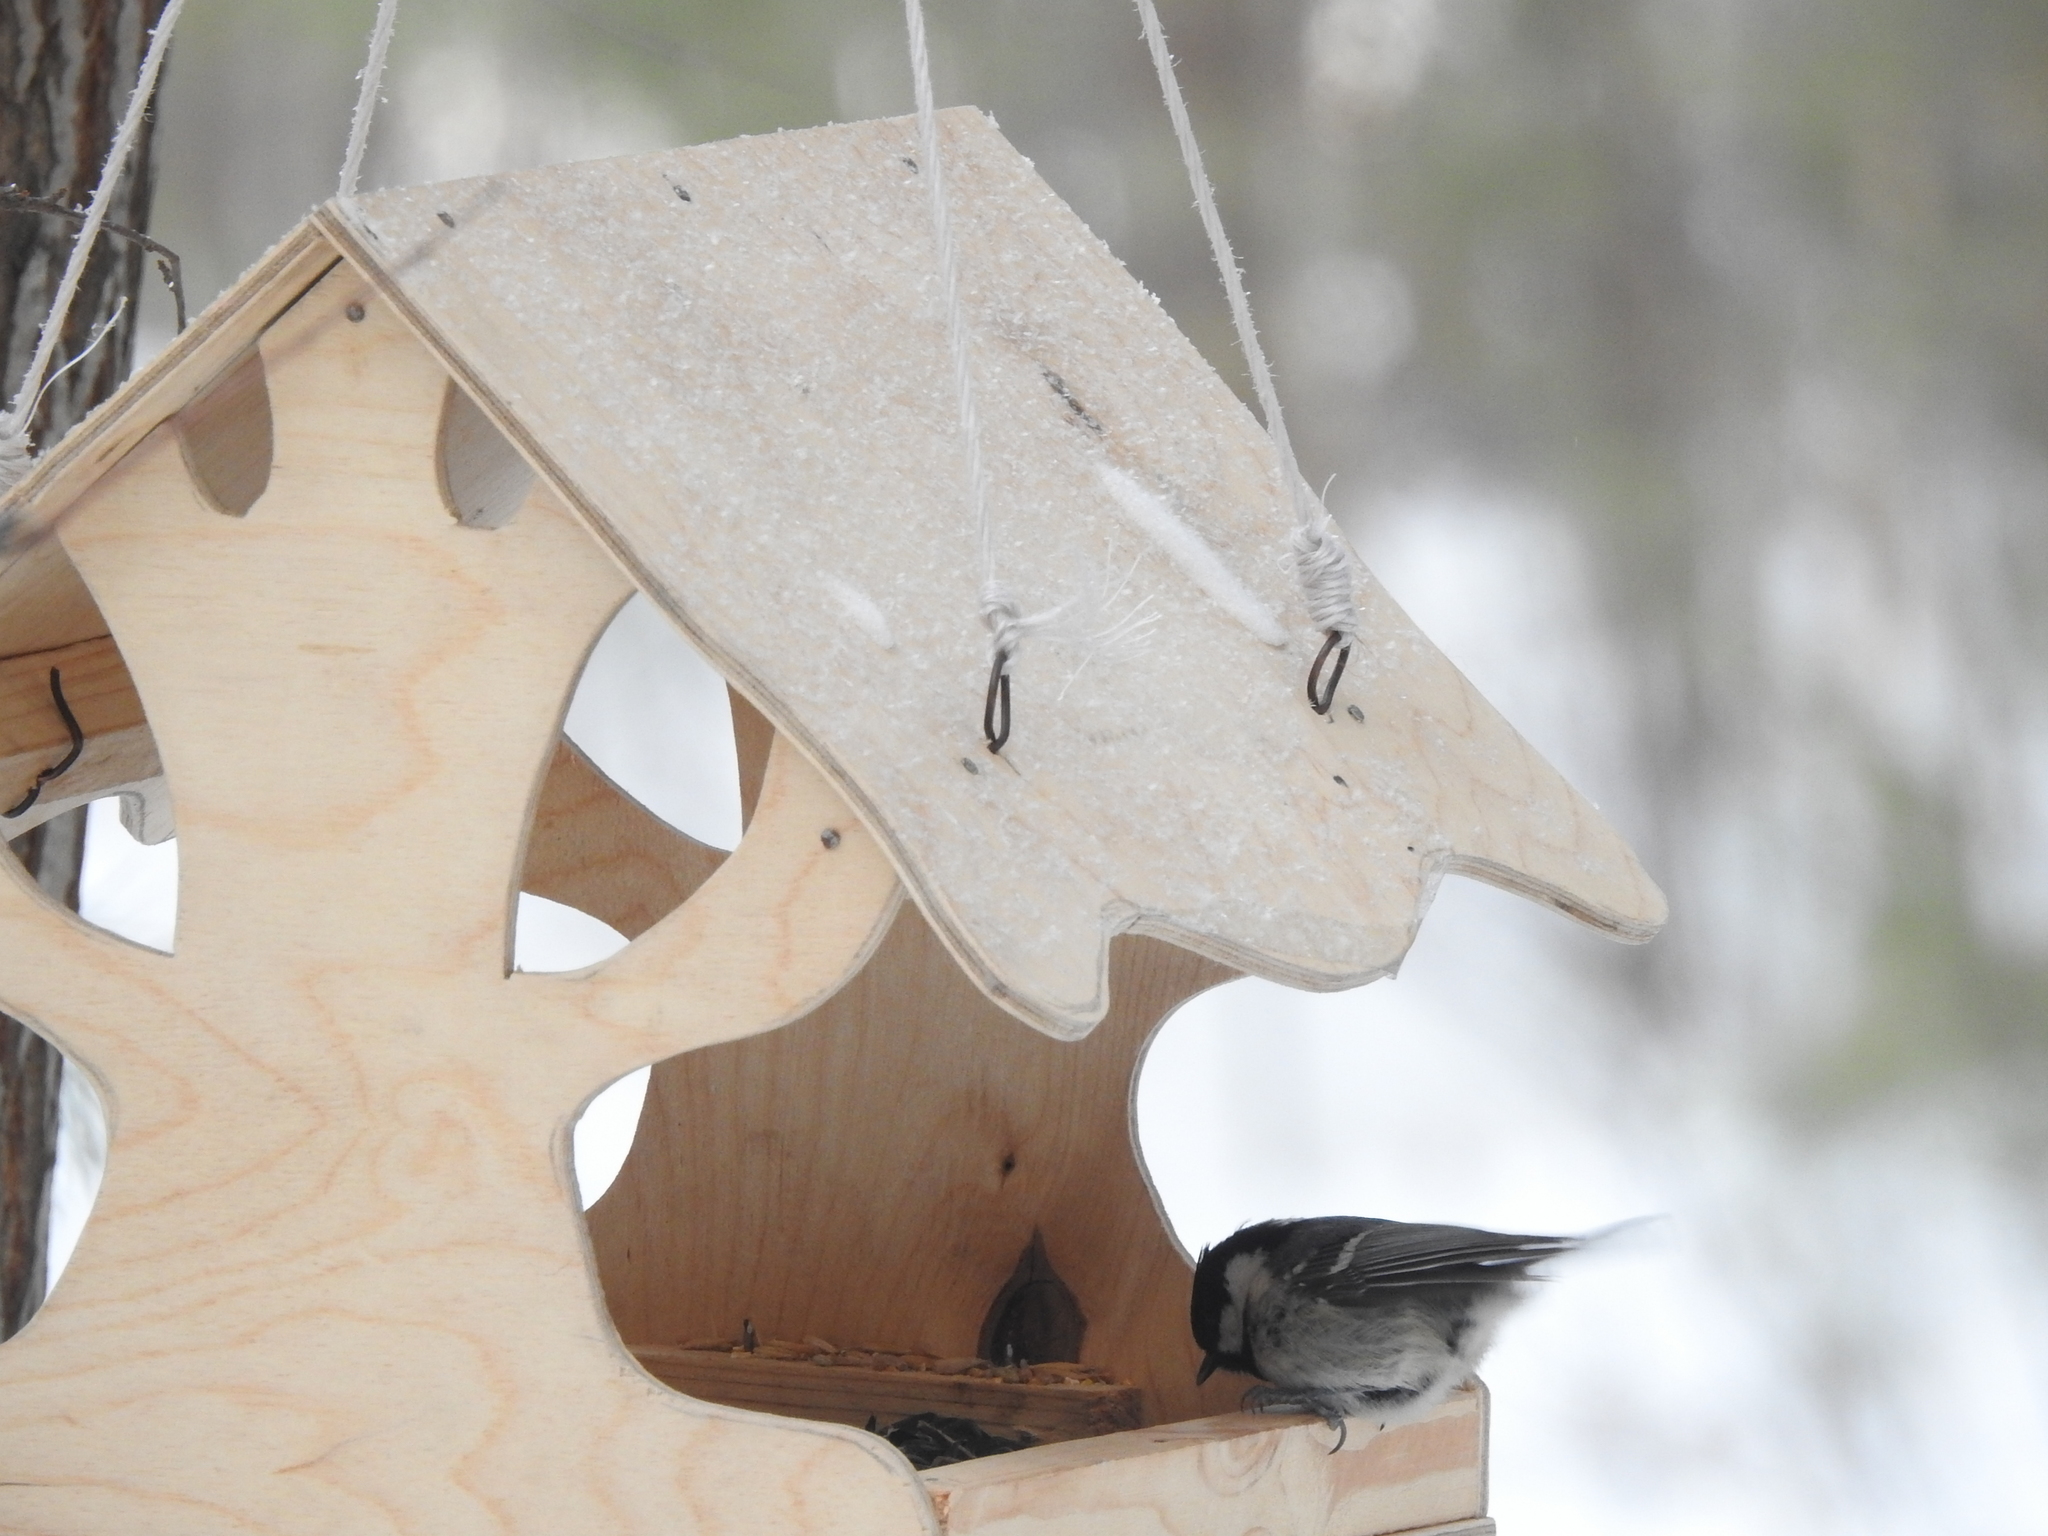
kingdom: Animalia
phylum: Chordata
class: Aves
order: Passeriformes
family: Paridae
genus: Periparus
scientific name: Periparus ater
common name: Coal tit
